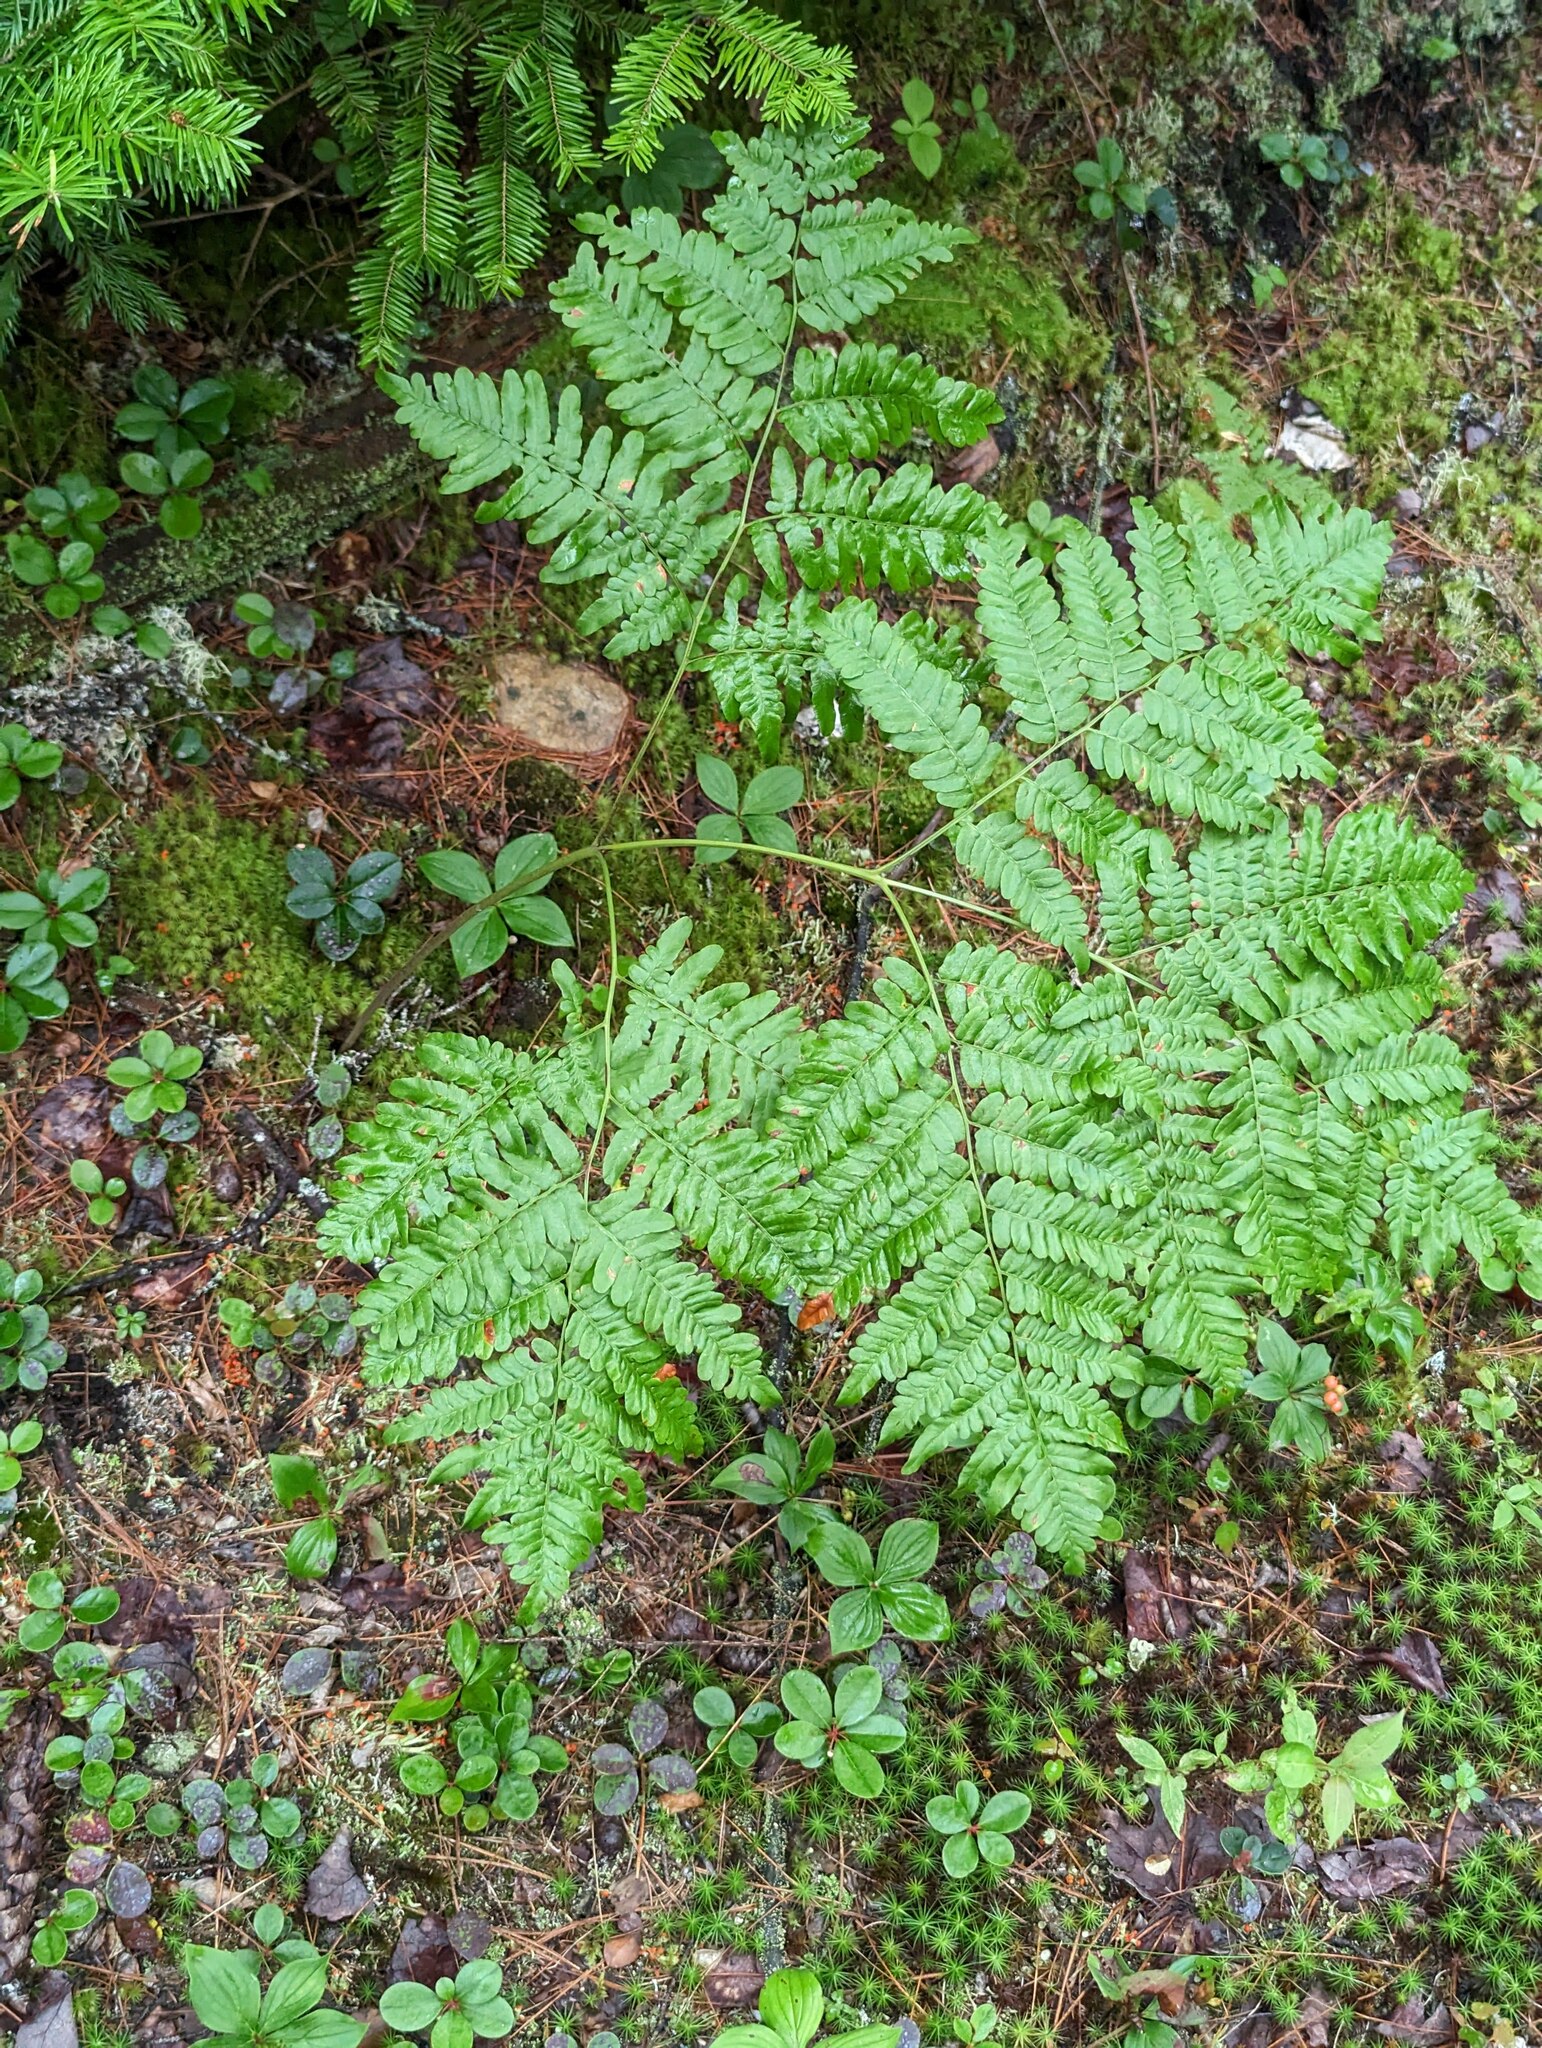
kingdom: Plantae
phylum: Tracheophyta
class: Polypodiopsida
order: Polypodiales
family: Dennstaedtiaceae
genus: Pteridium
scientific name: Pteridium aquilinum
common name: Bracken
